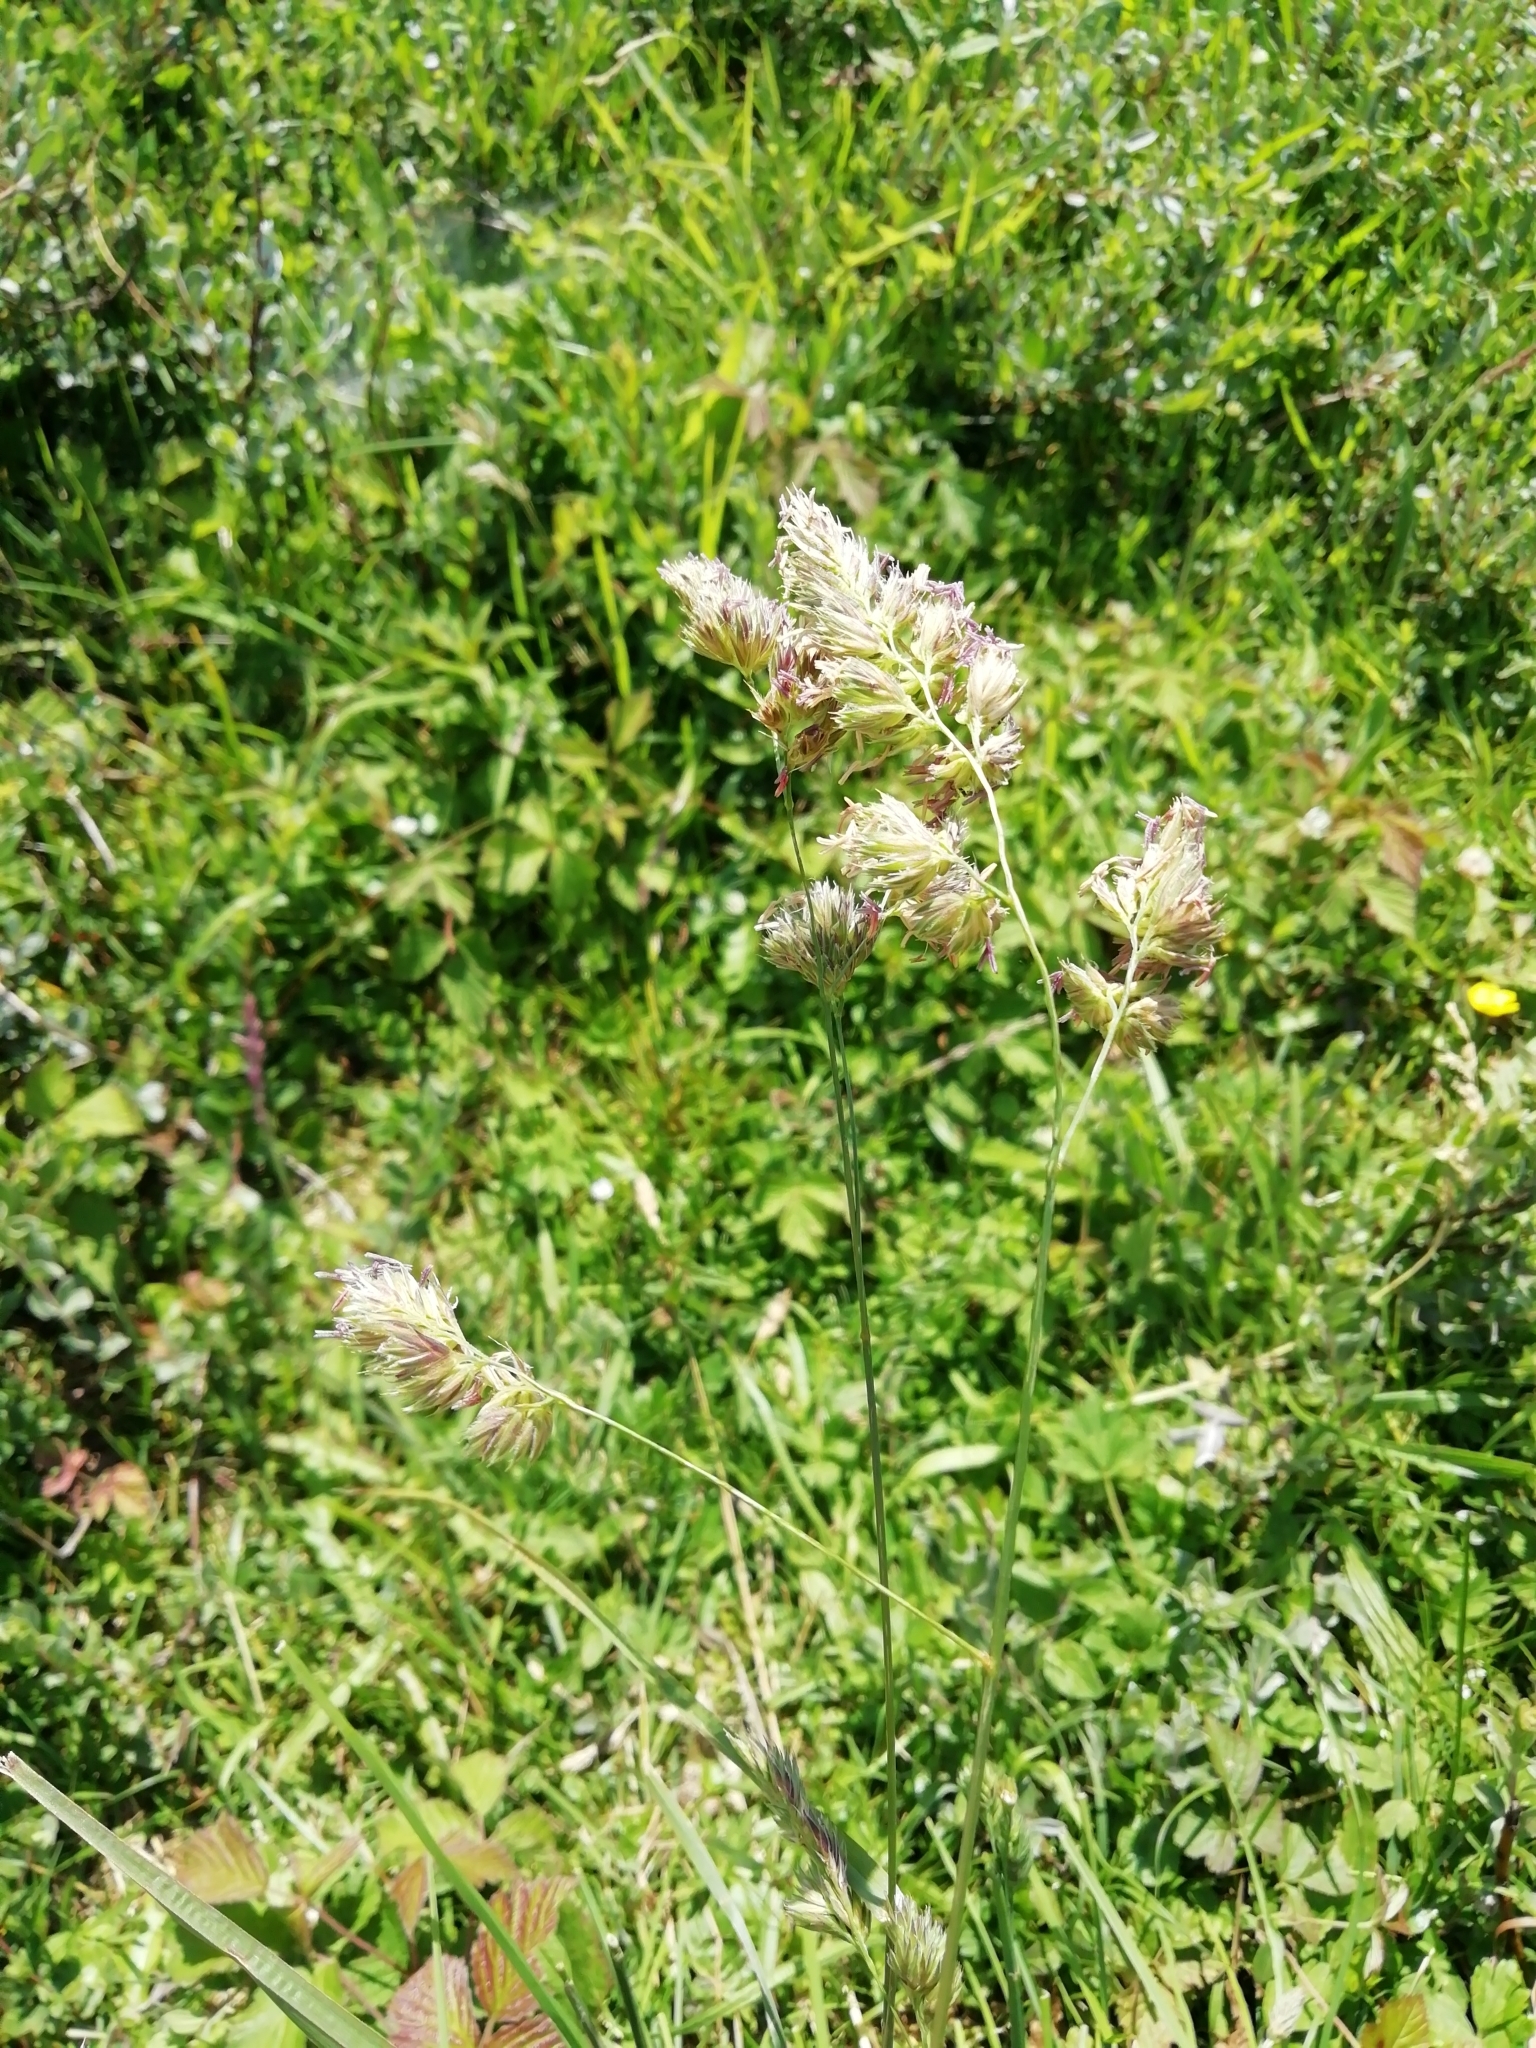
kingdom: Plantae
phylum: Tracheophyta
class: Liliopsida
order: Poales
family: Poaceae
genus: Dactylis
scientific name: Dactylis glomerata
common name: Orchardgrass
